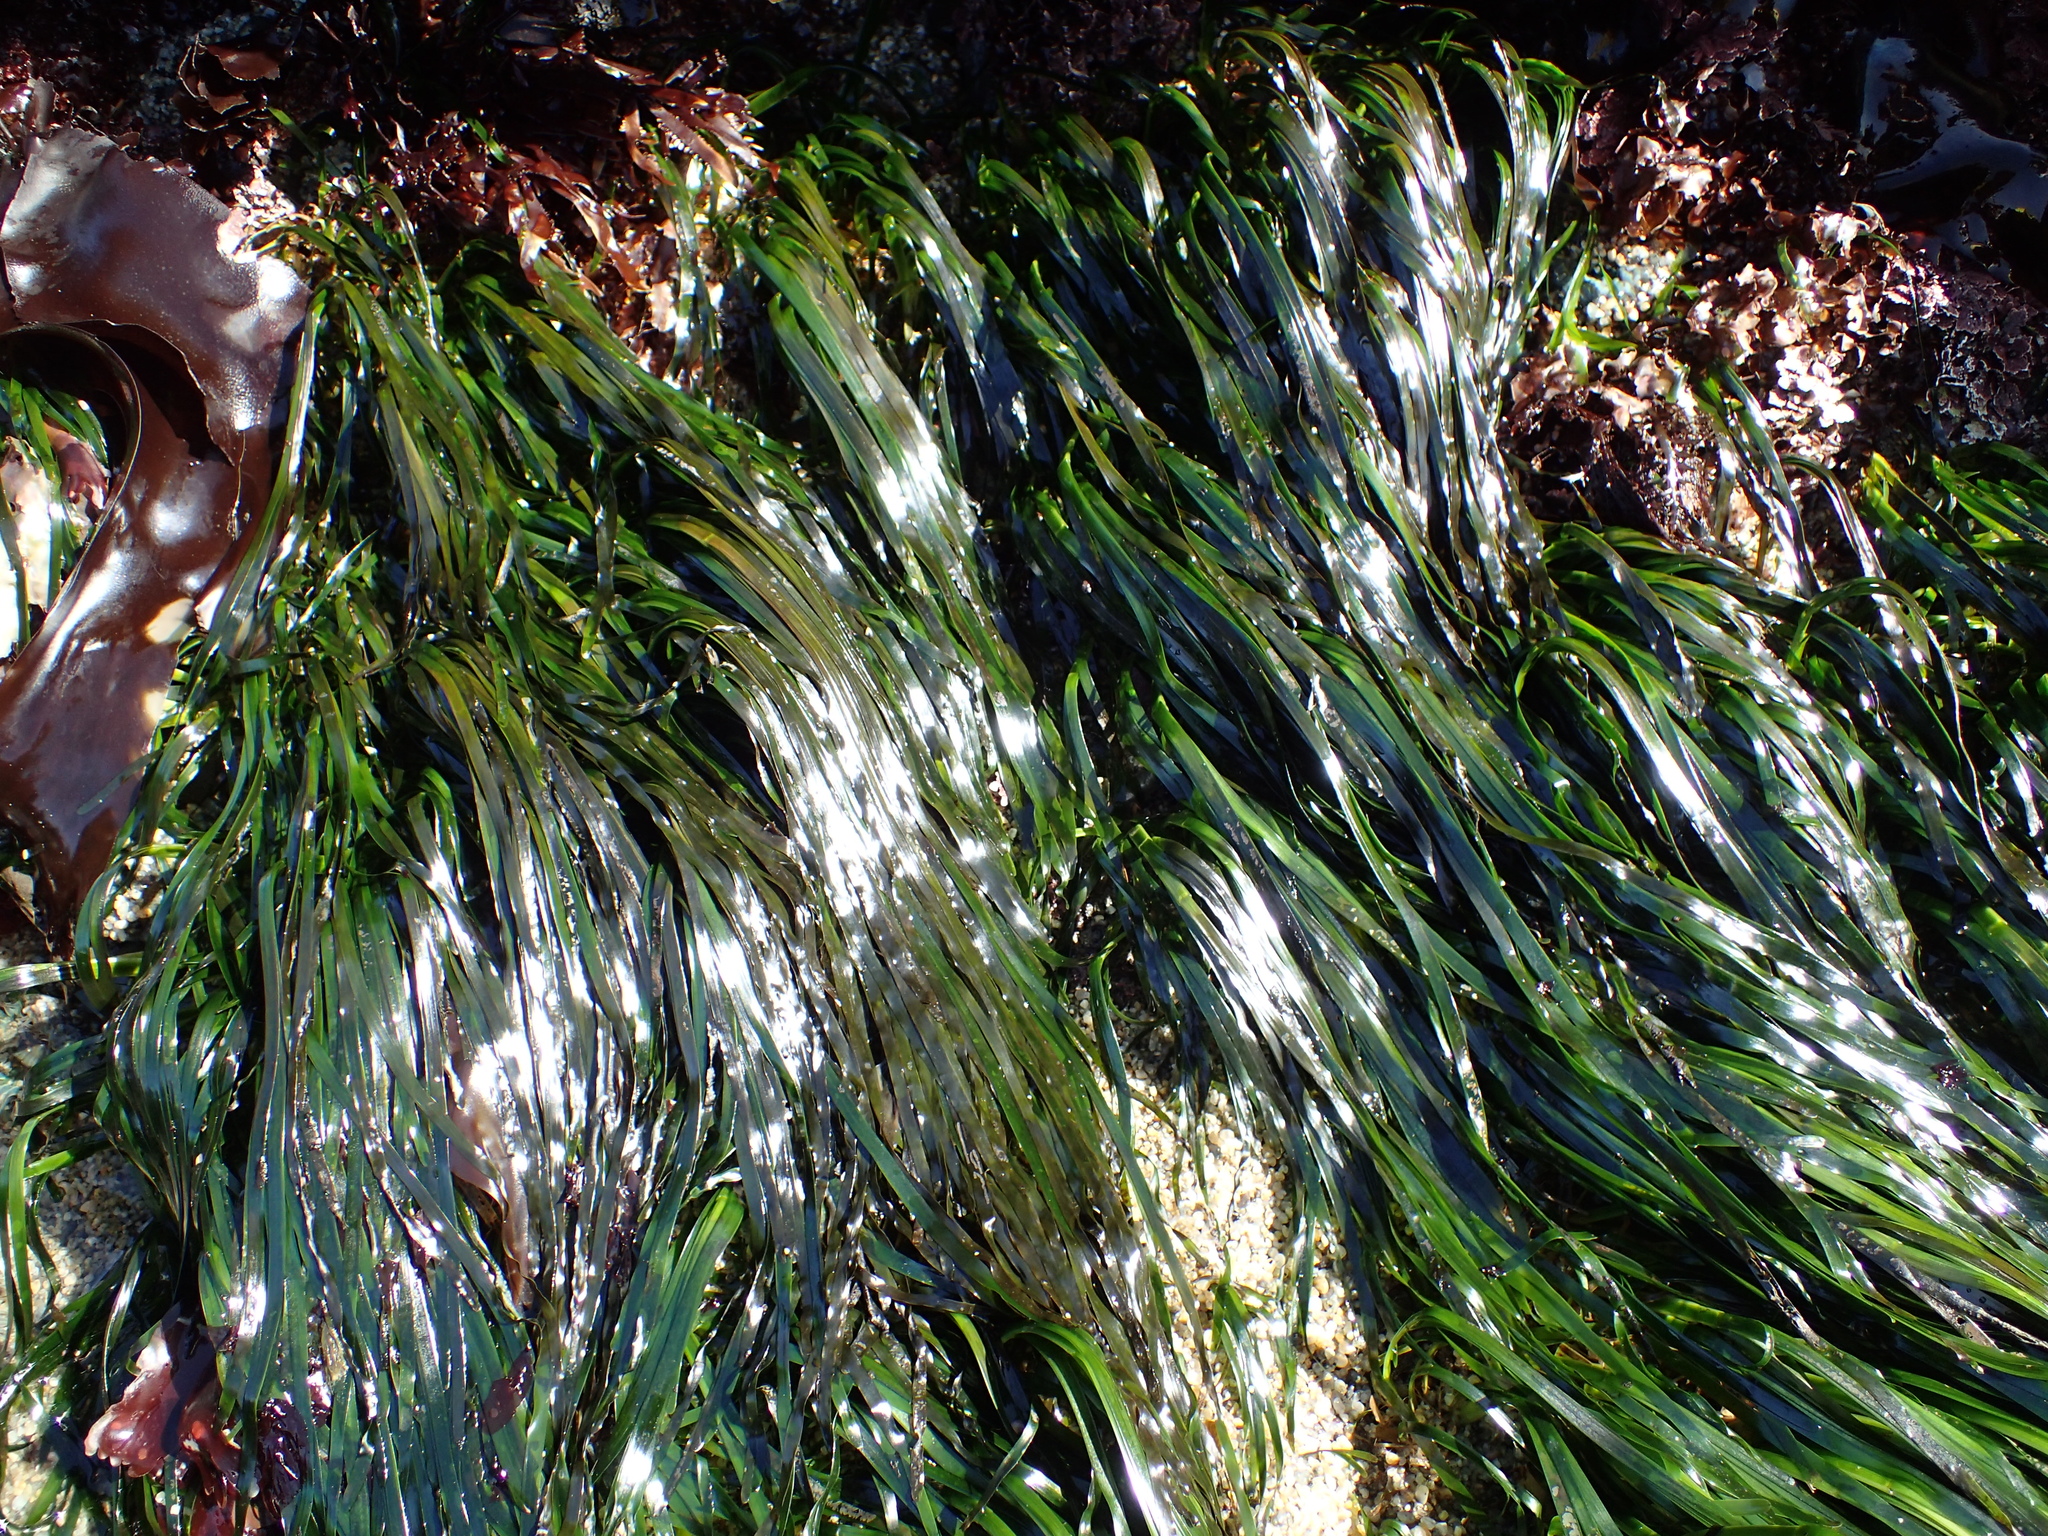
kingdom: Plantae
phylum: Tracheophyta
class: Liliopsida
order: Alismatales
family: Zosteraceae
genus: Phyllospadix
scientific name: Phyllospadix scouleri
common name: Species code: ps
